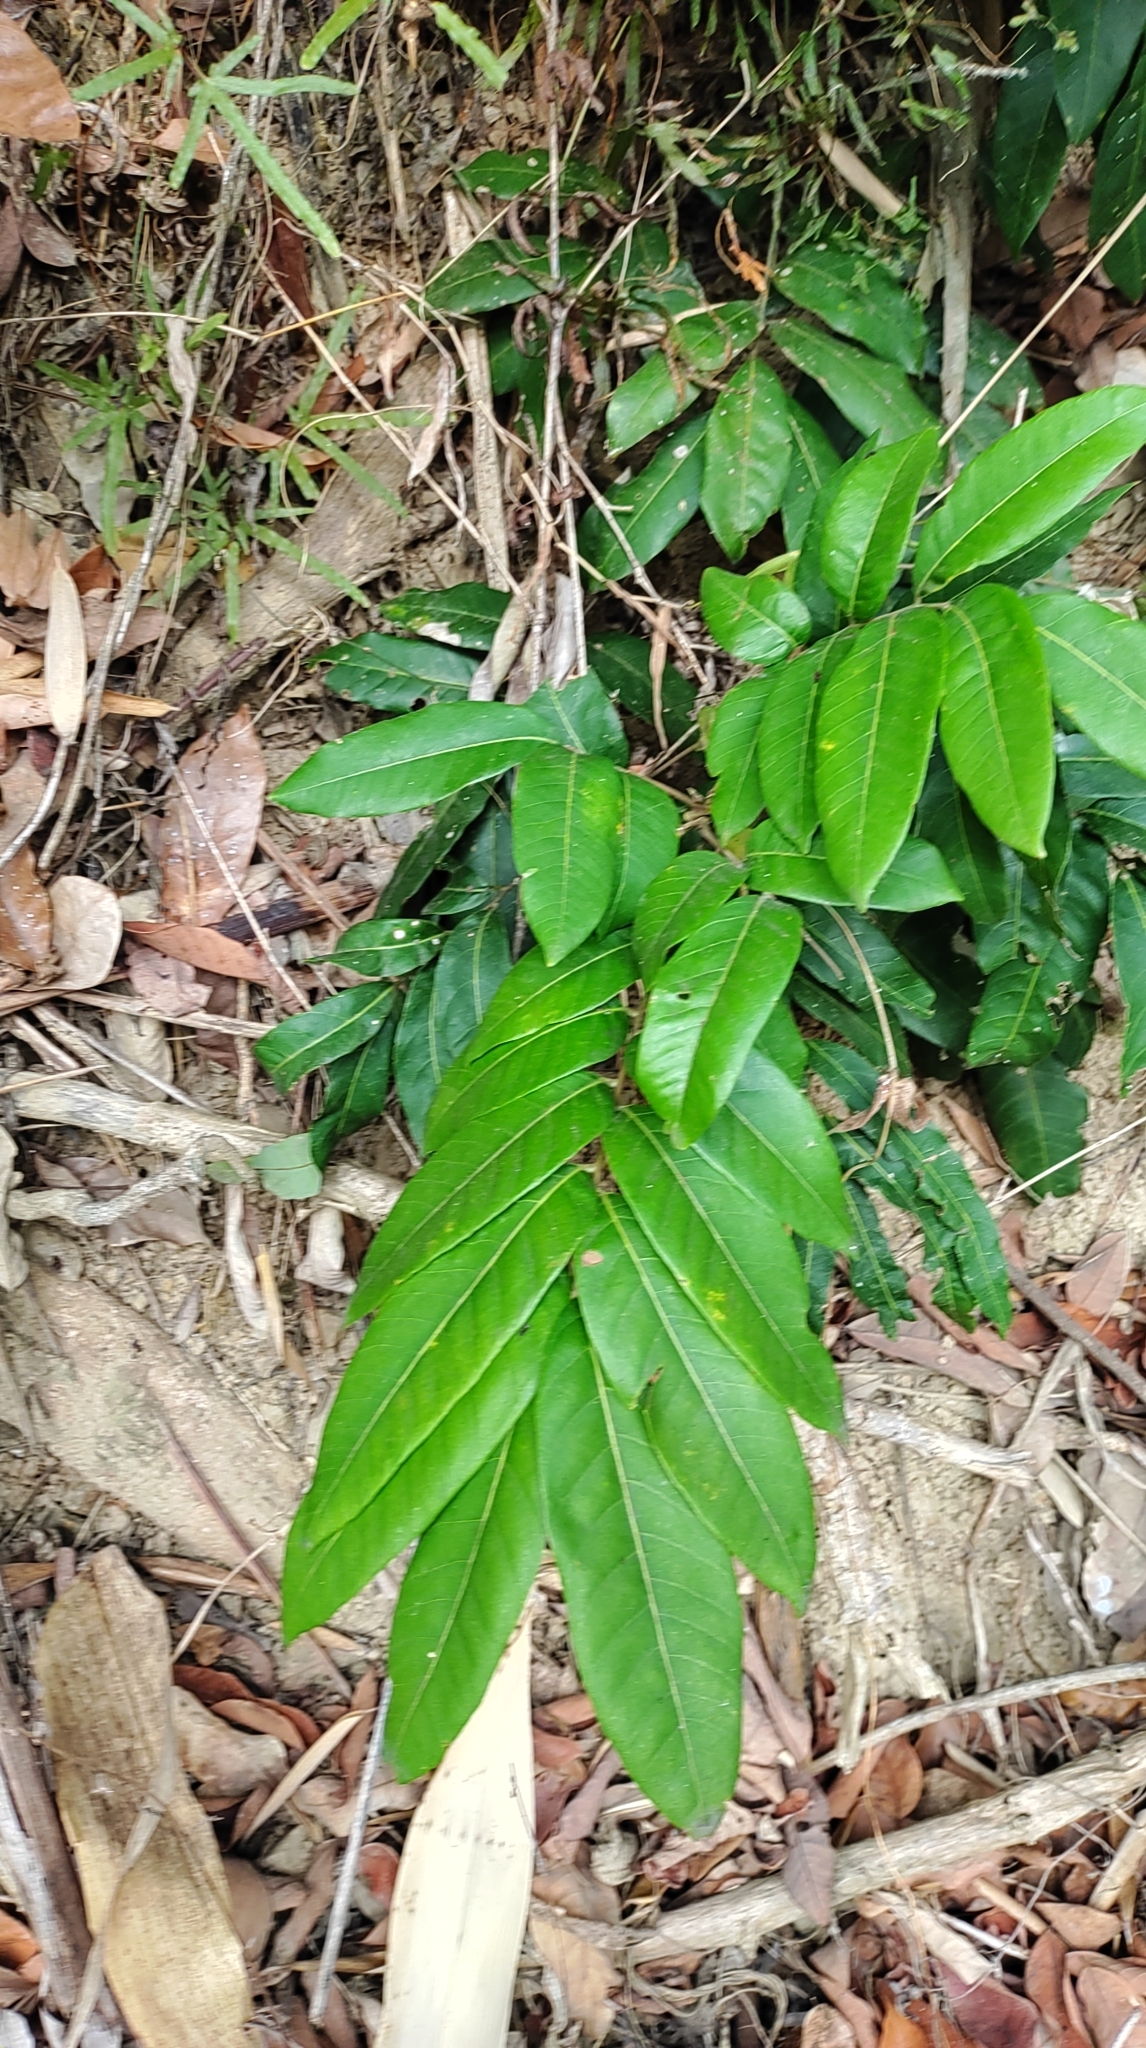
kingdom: Plantae
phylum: Tracheophyta
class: Magnoliopsida
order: Sapindales
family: Sapindaceae
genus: Dimocarpus
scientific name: Dimocarpus longan
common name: Longan
